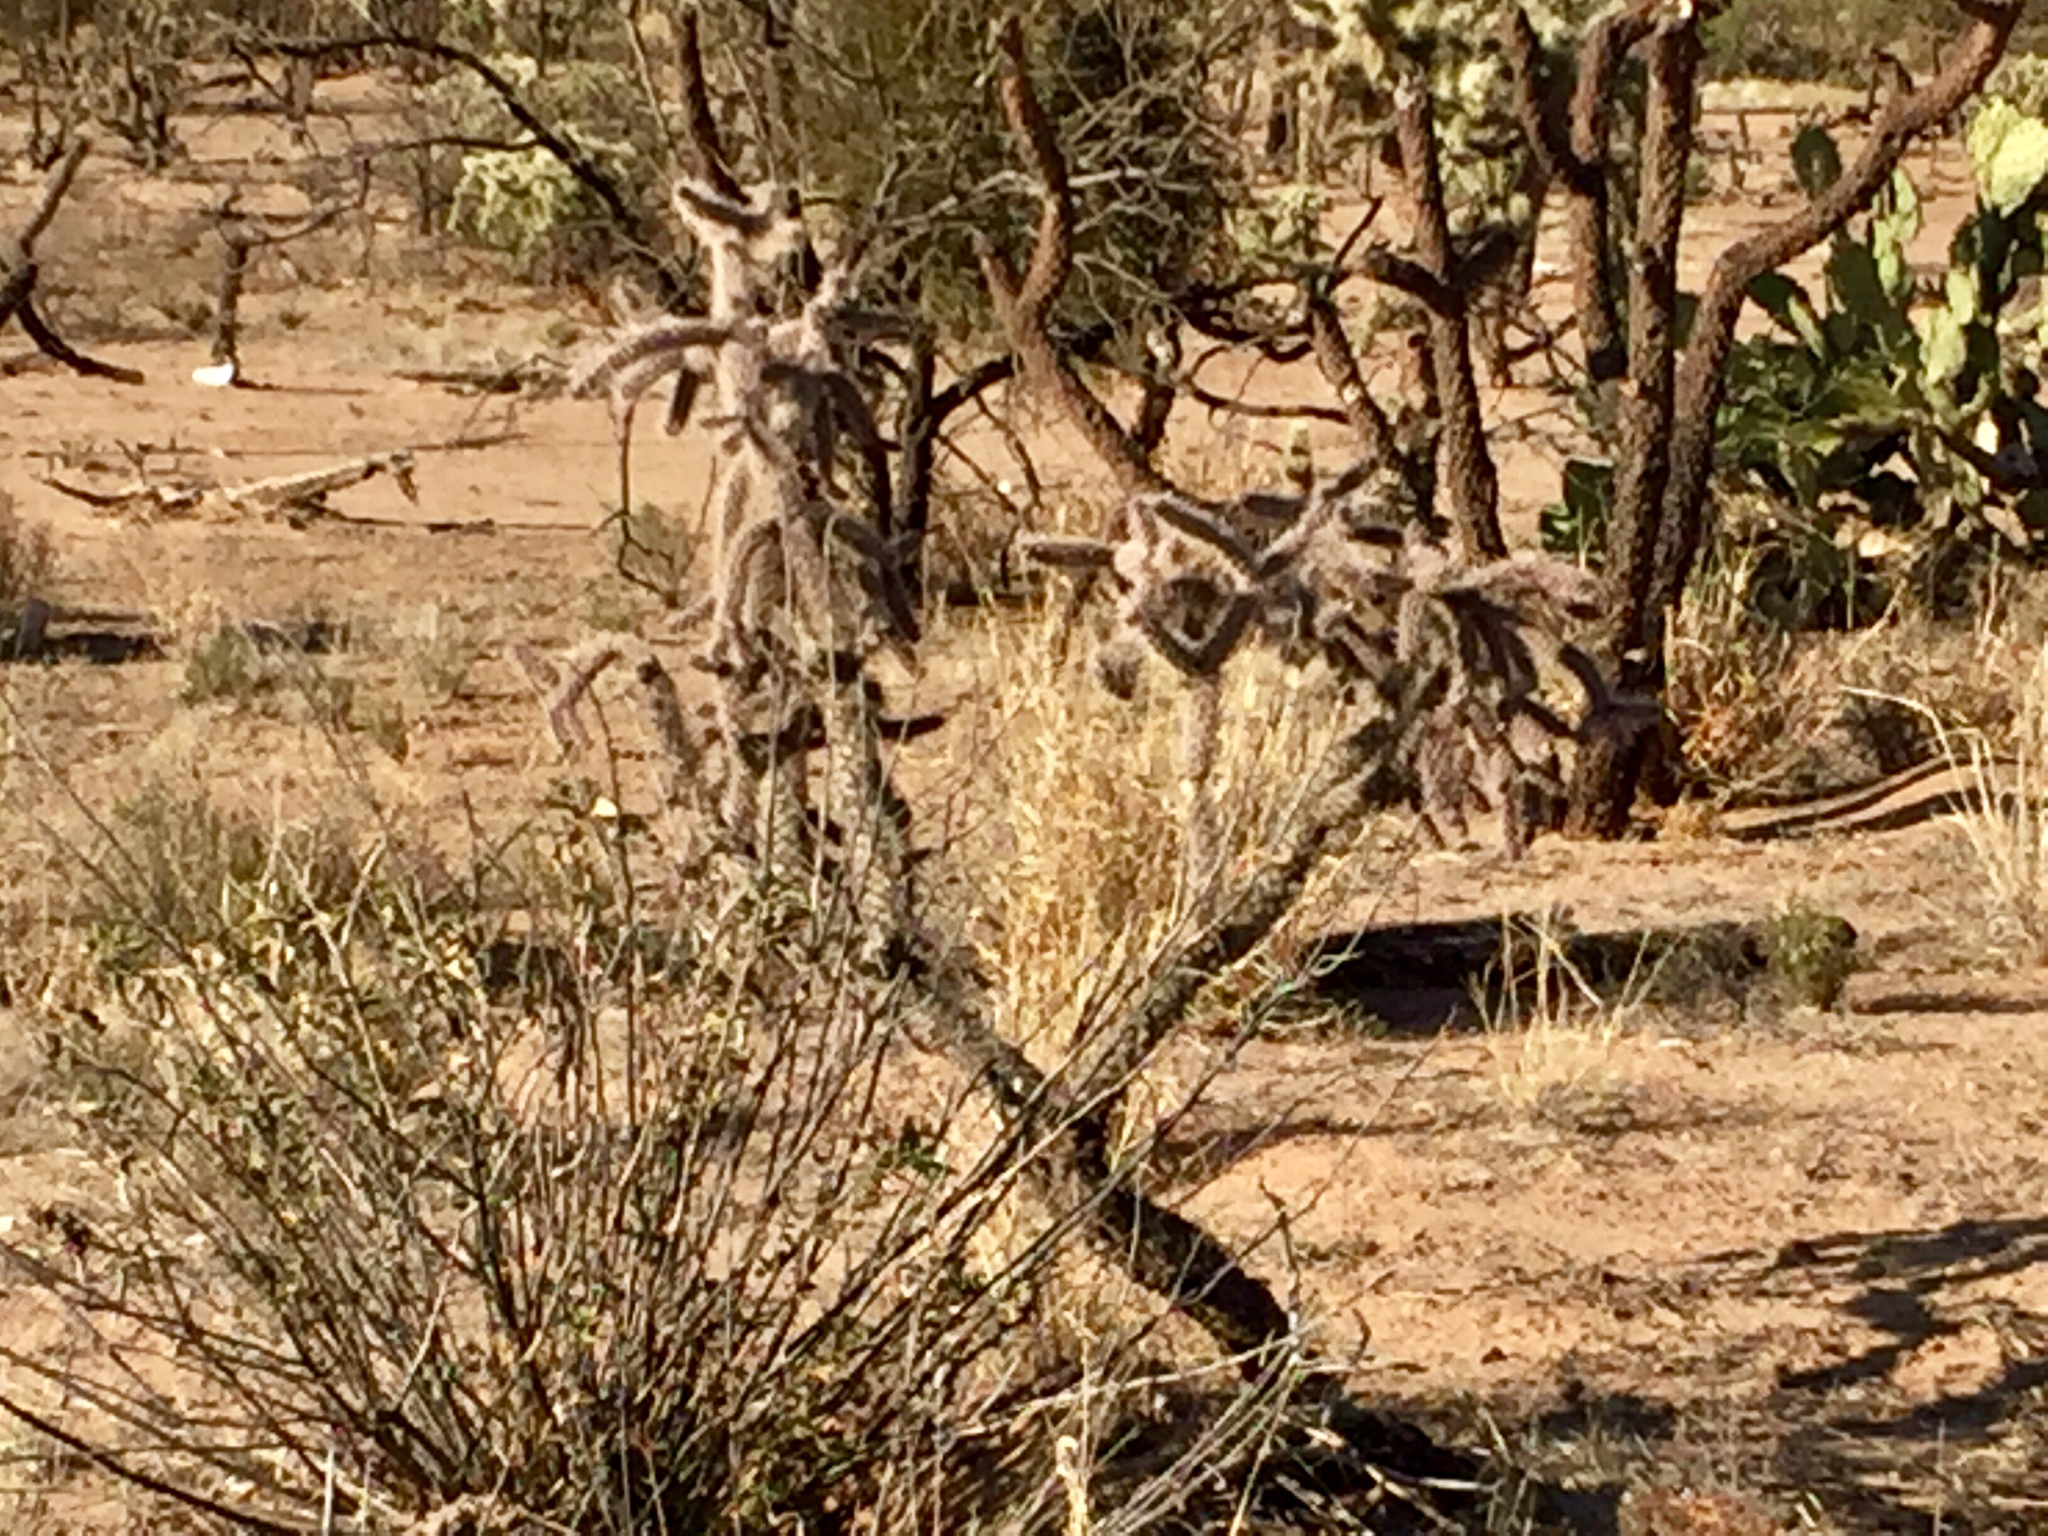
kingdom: Plantae
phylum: Tracheophyta
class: Magnoliopsida
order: Caryophyllales
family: Cactaceae
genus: Cylindropuntia
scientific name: Cylindropuntia imbricata
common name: Candelabrum cactus
